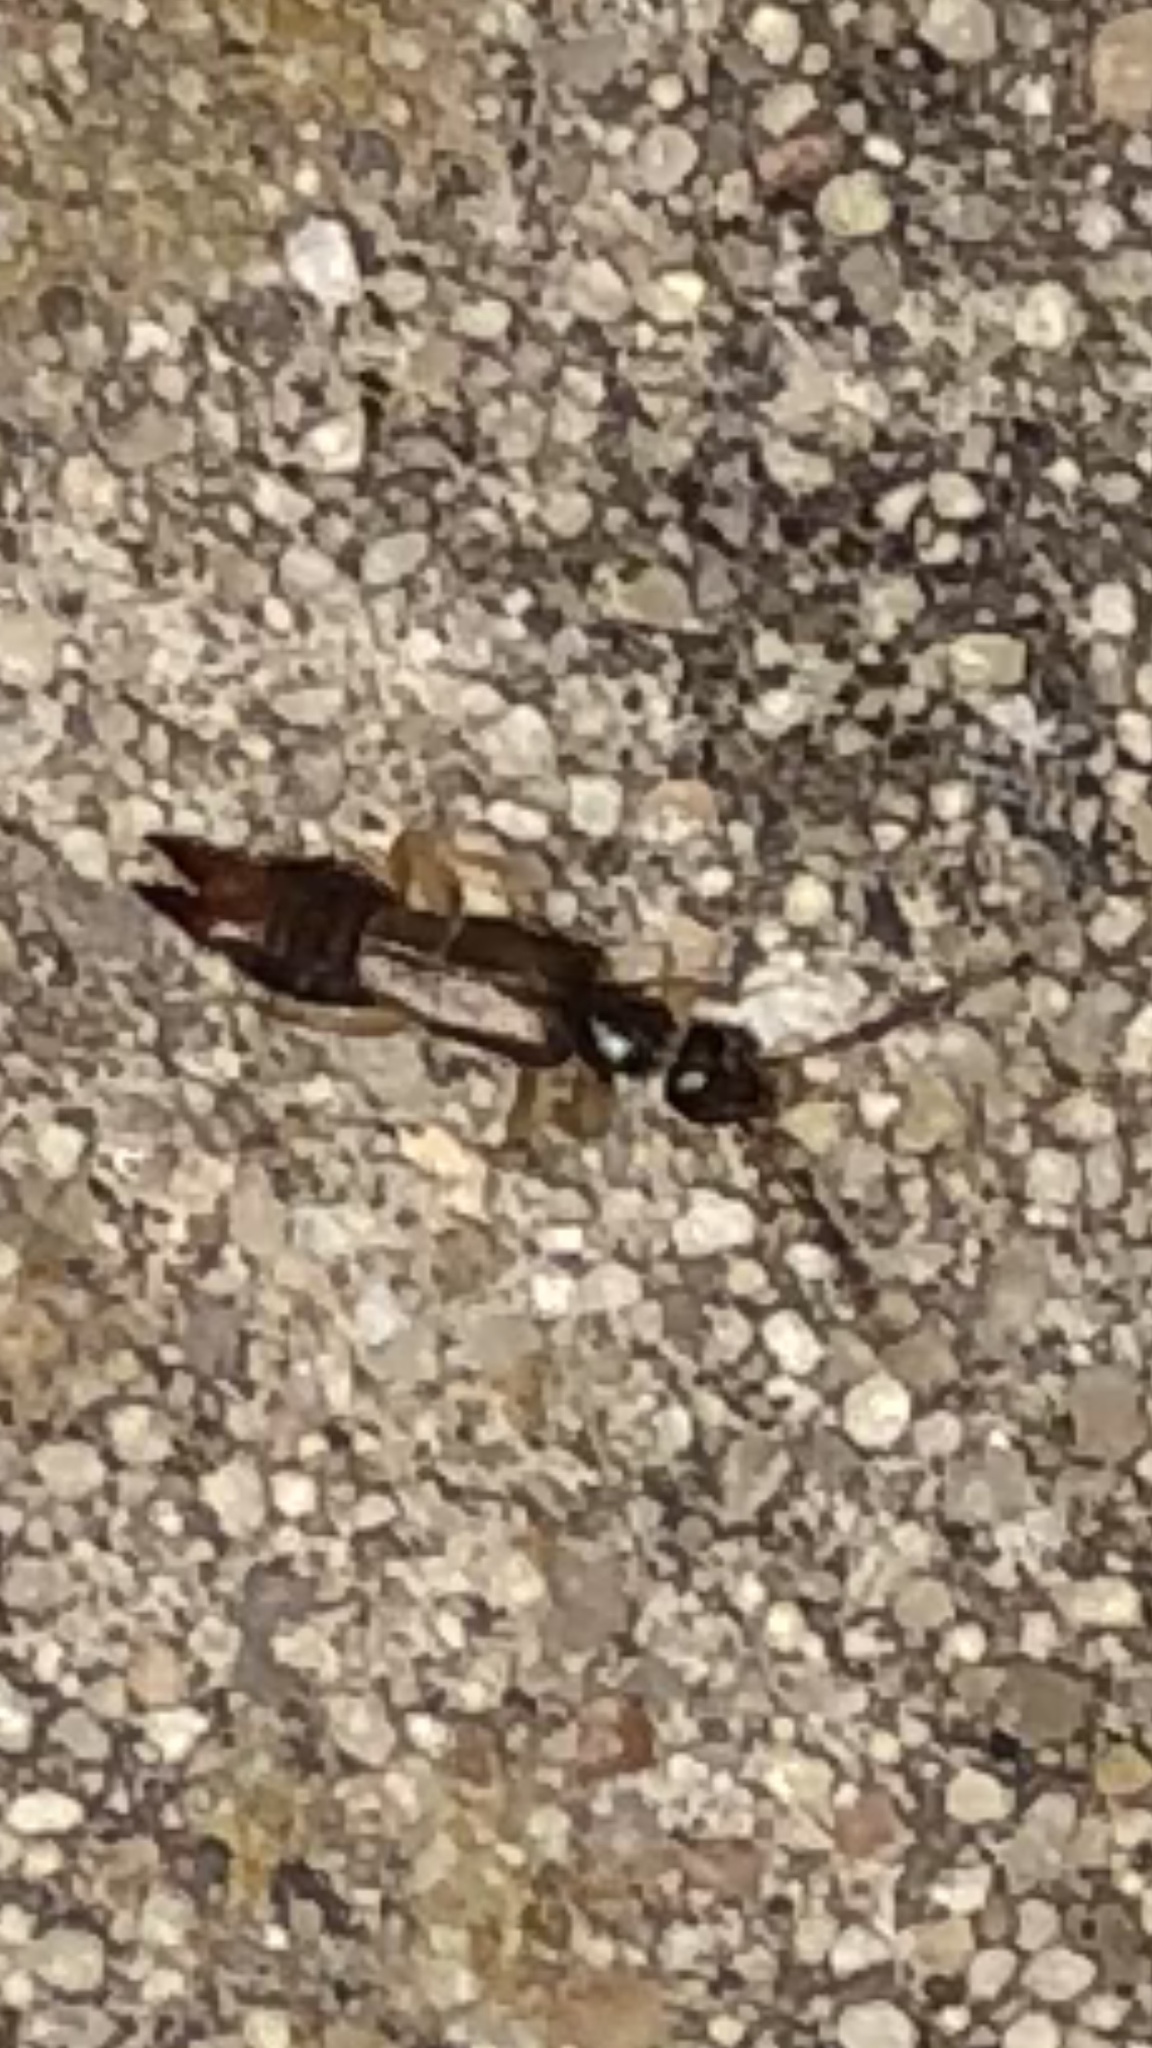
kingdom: Animalia
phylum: Arthropoda
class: Insecta
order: Dermaptera
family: Spongiphoridae
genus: Labia
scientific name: Labia minor
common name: Lesser earwig
